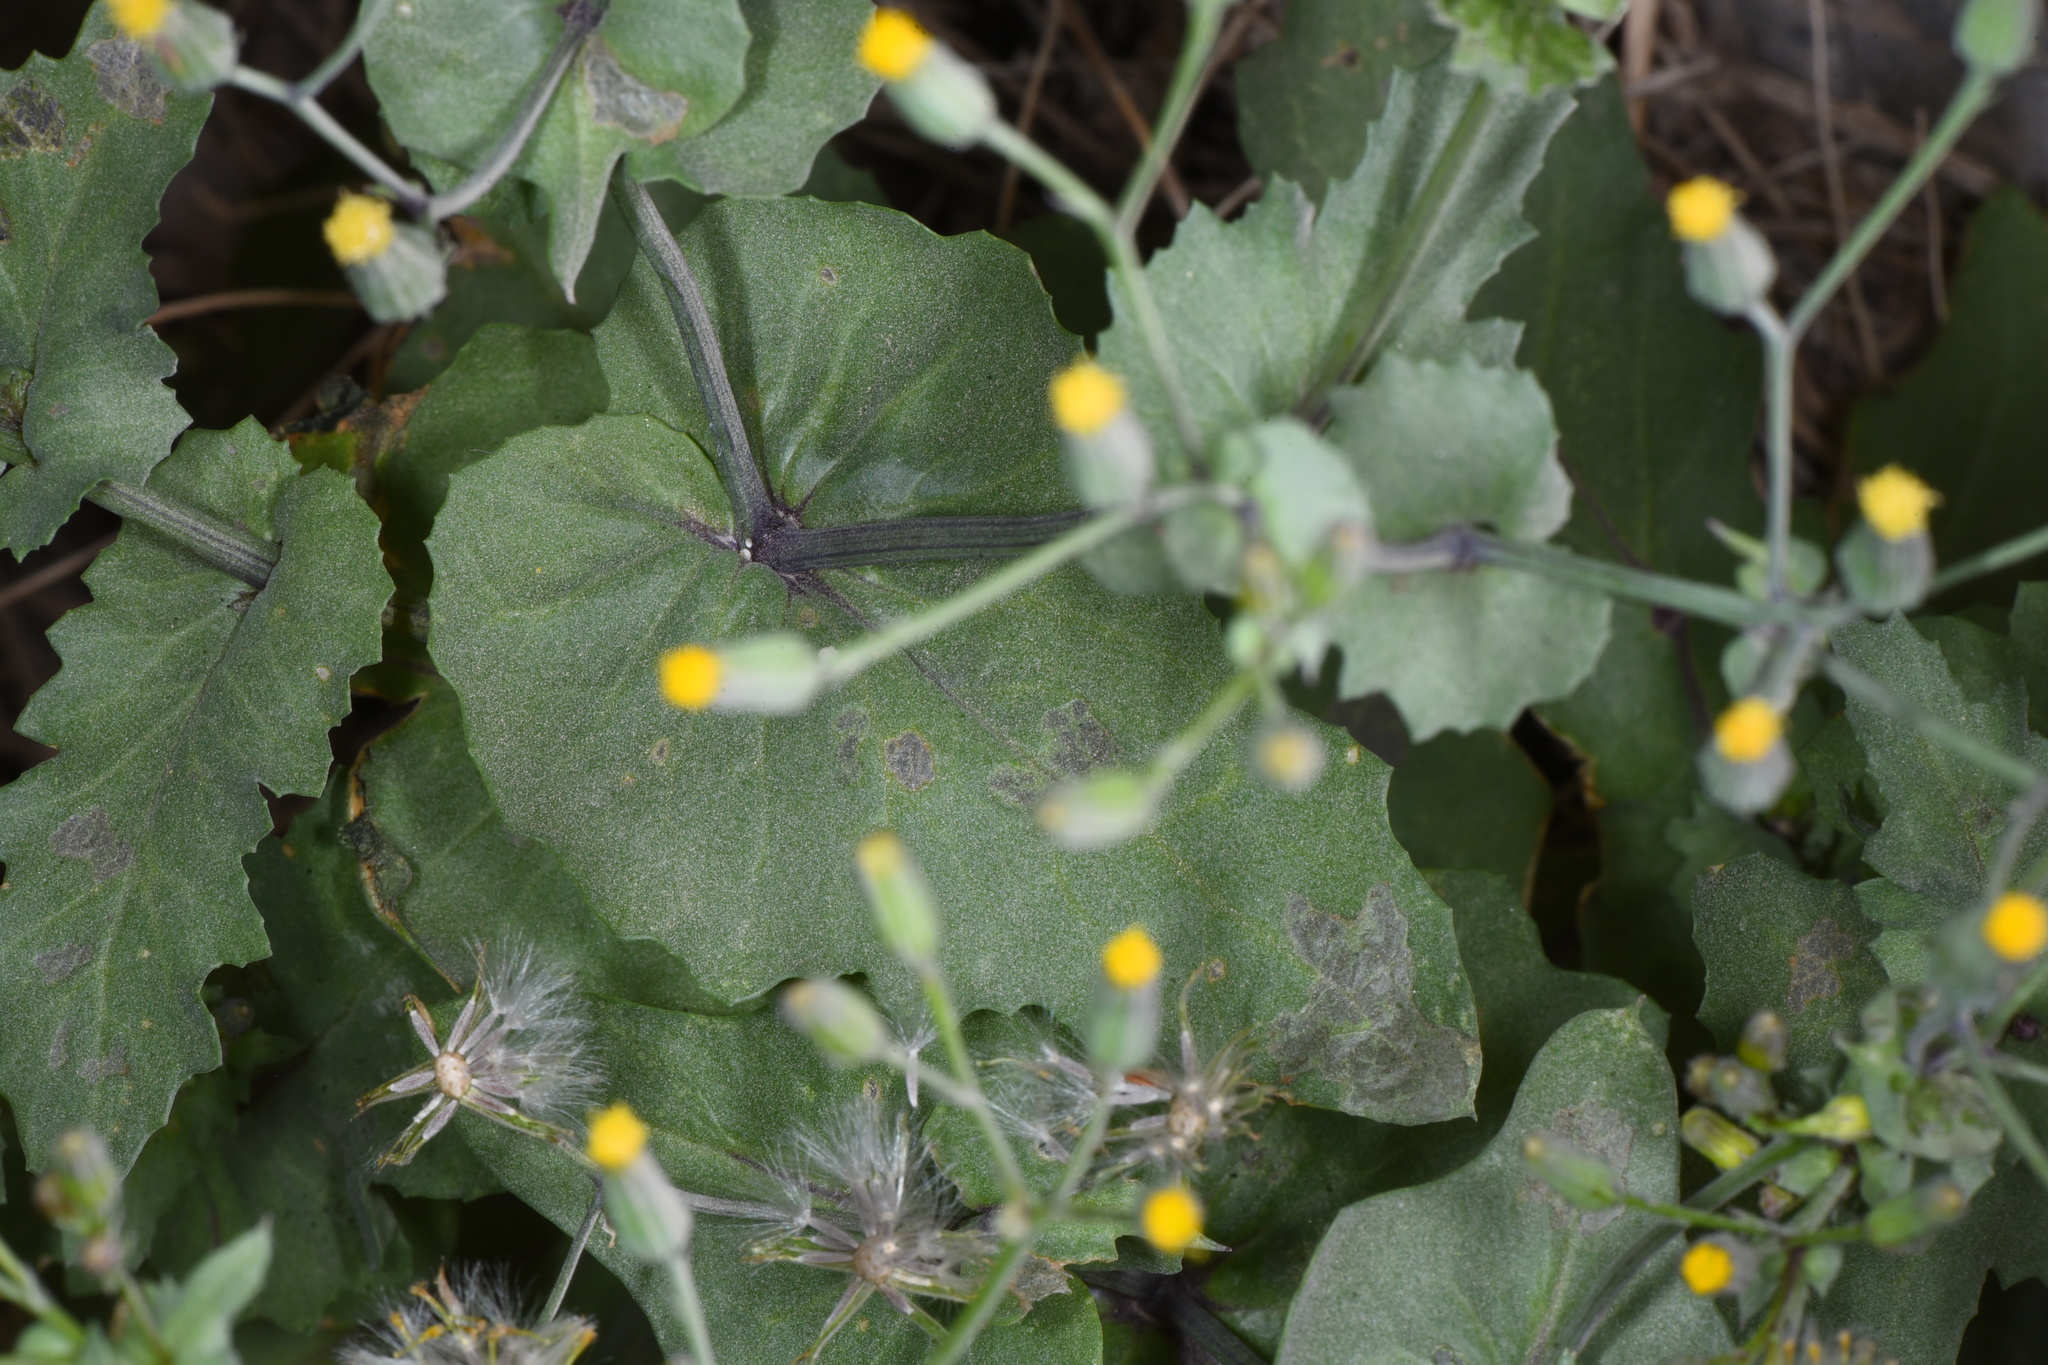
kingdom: Plantae
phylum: Tracheophyta
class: Magnoliopsida
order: Asterales
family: Asteraceae
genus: Senecio
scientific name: Senecio mohavensis
